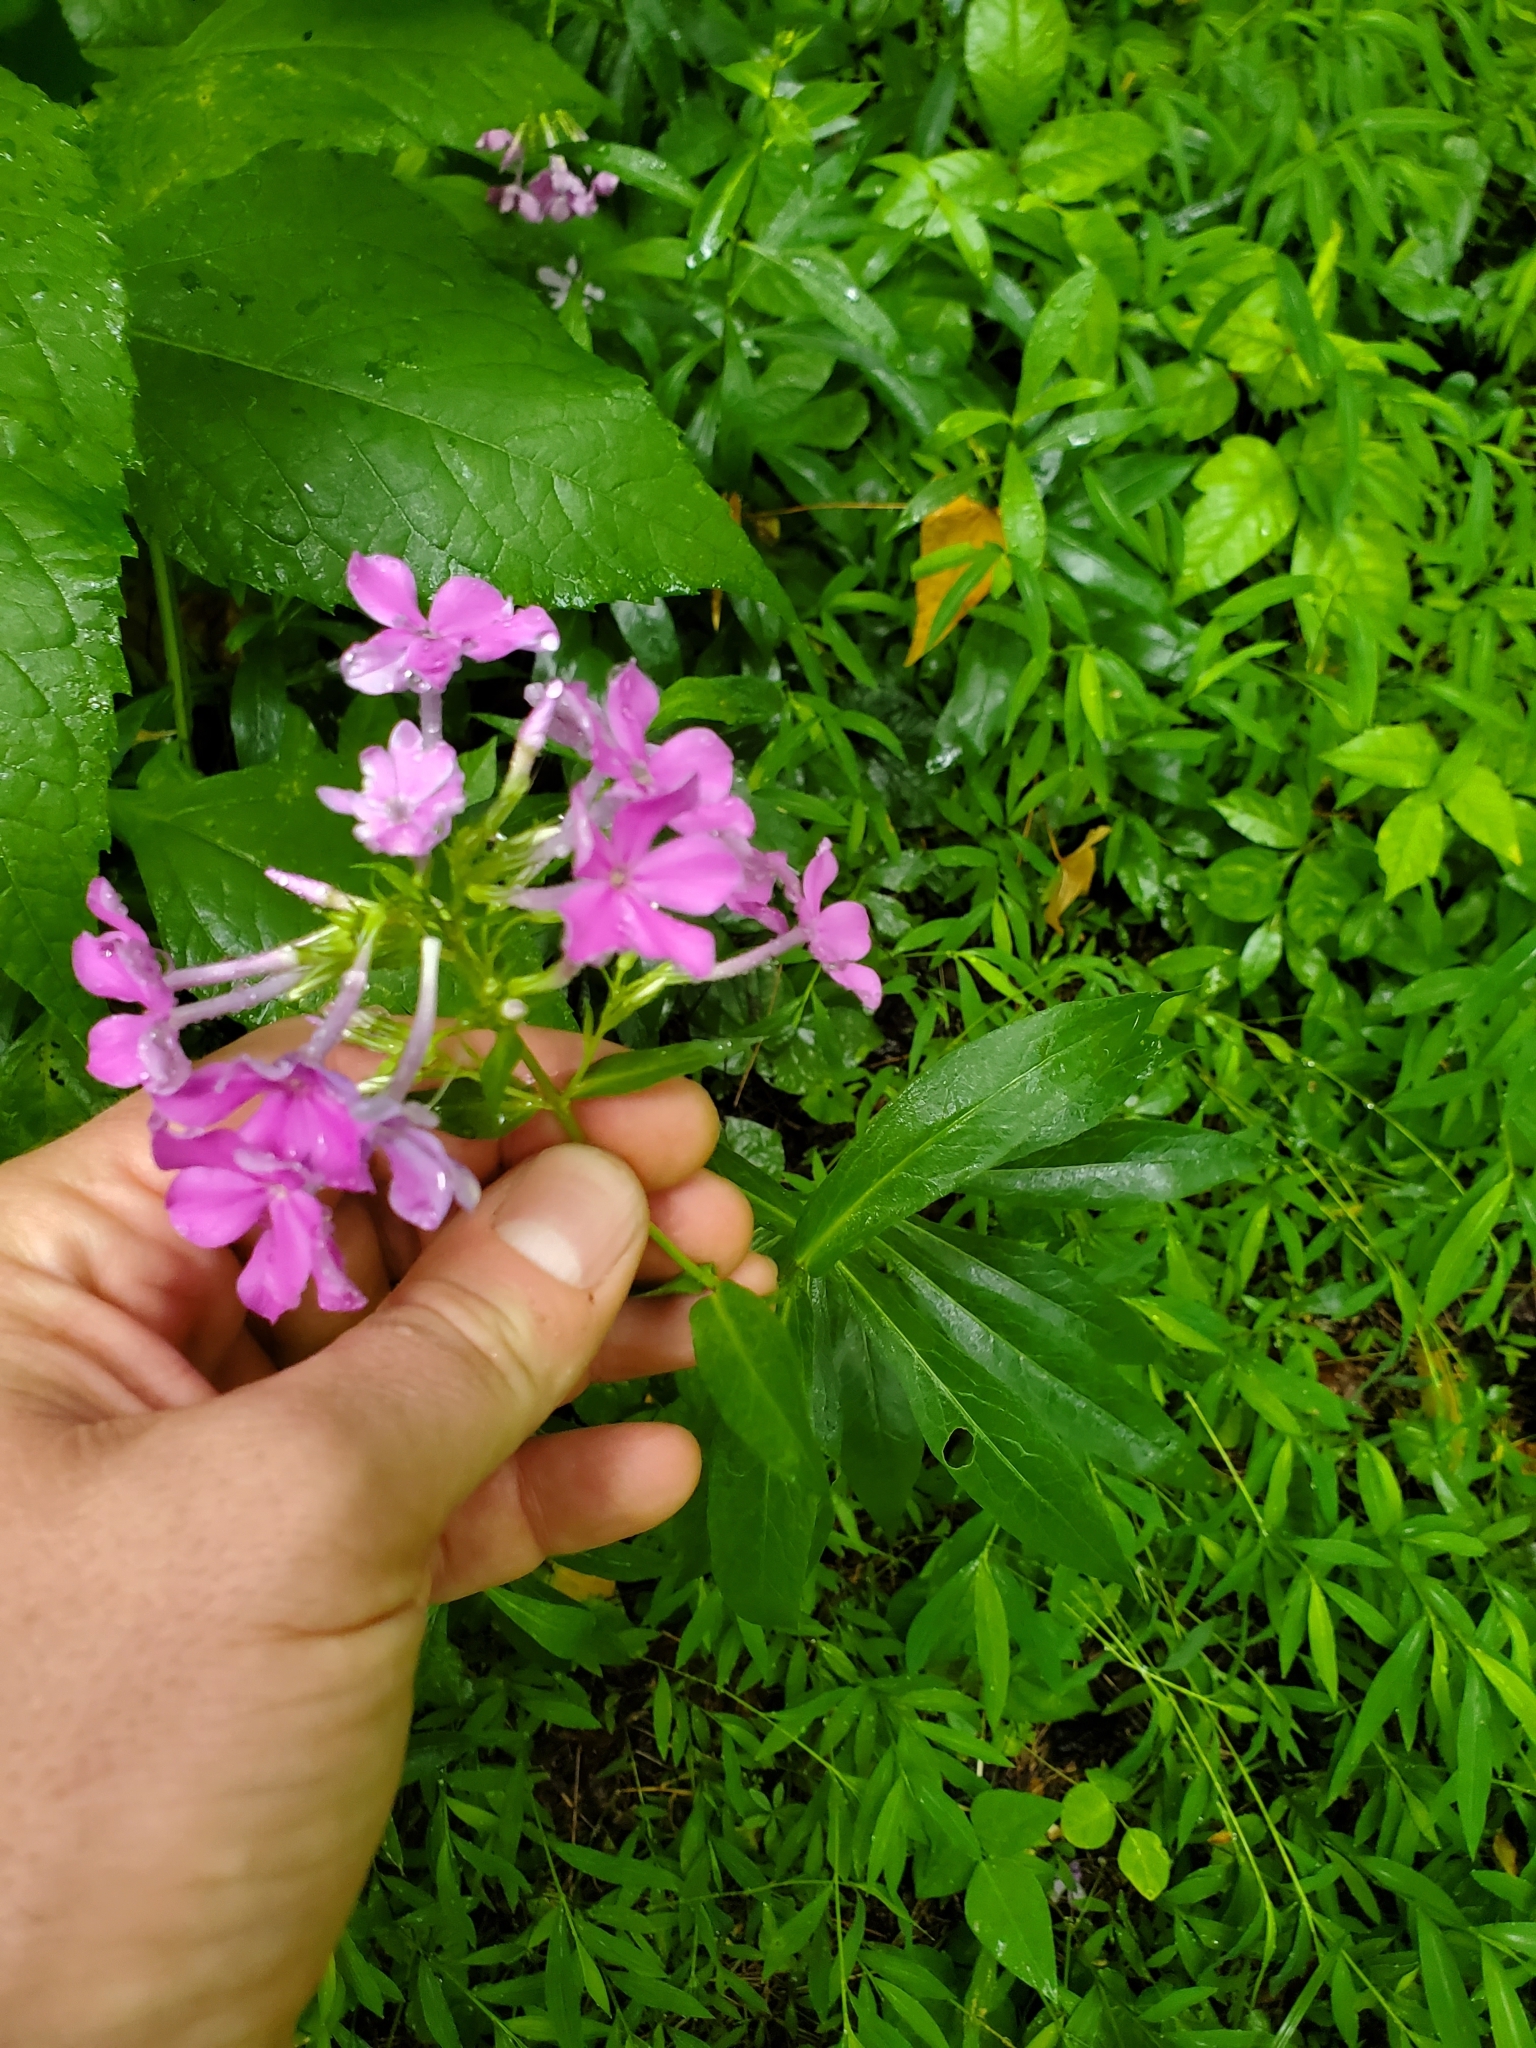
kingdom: Plantae
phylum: Tracheophyta
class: Magnoliopsida
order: Ericales
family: Polemoniaceae
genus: Phlox
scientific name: Phlox paniculata
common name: Fall phlox
